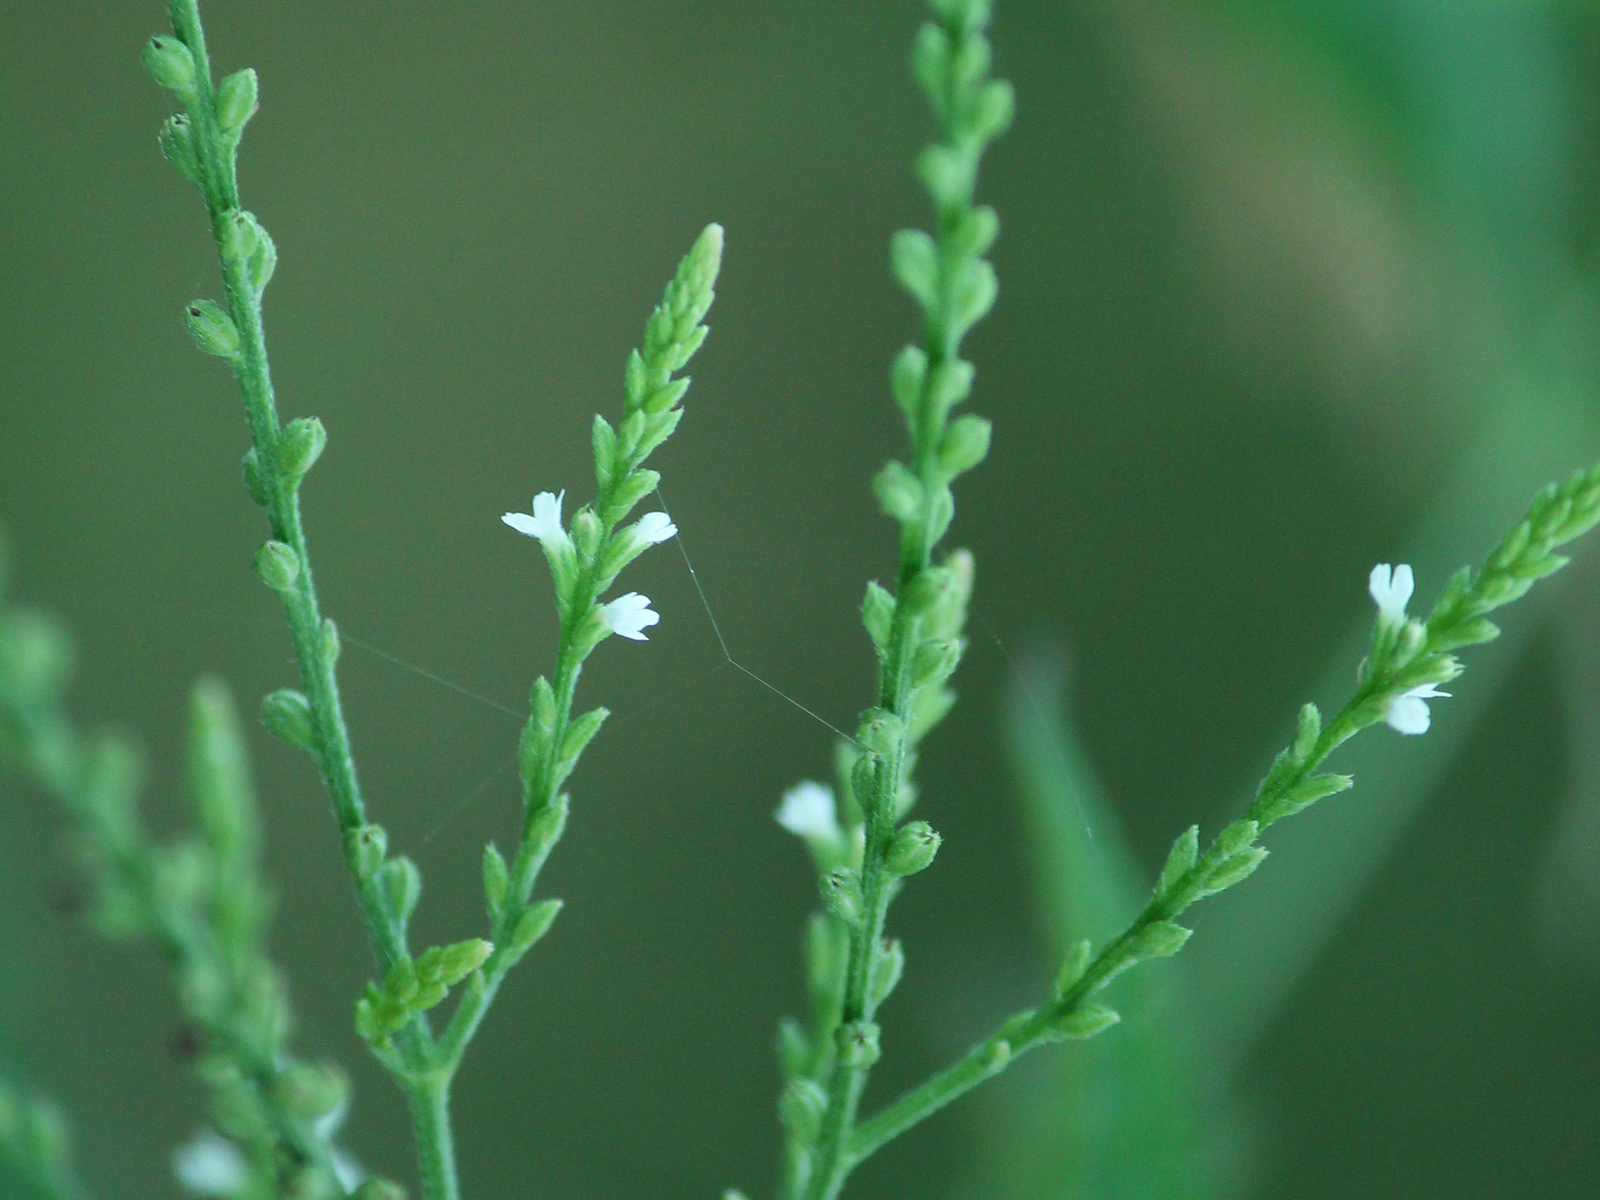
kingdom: Plantae
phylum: Tracheophyta
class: Magnoliopsida
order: Lamiales
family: Verbenaceae
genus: Verbena
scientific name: Verbena urticifolia
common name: Nettle-leaved vervain
